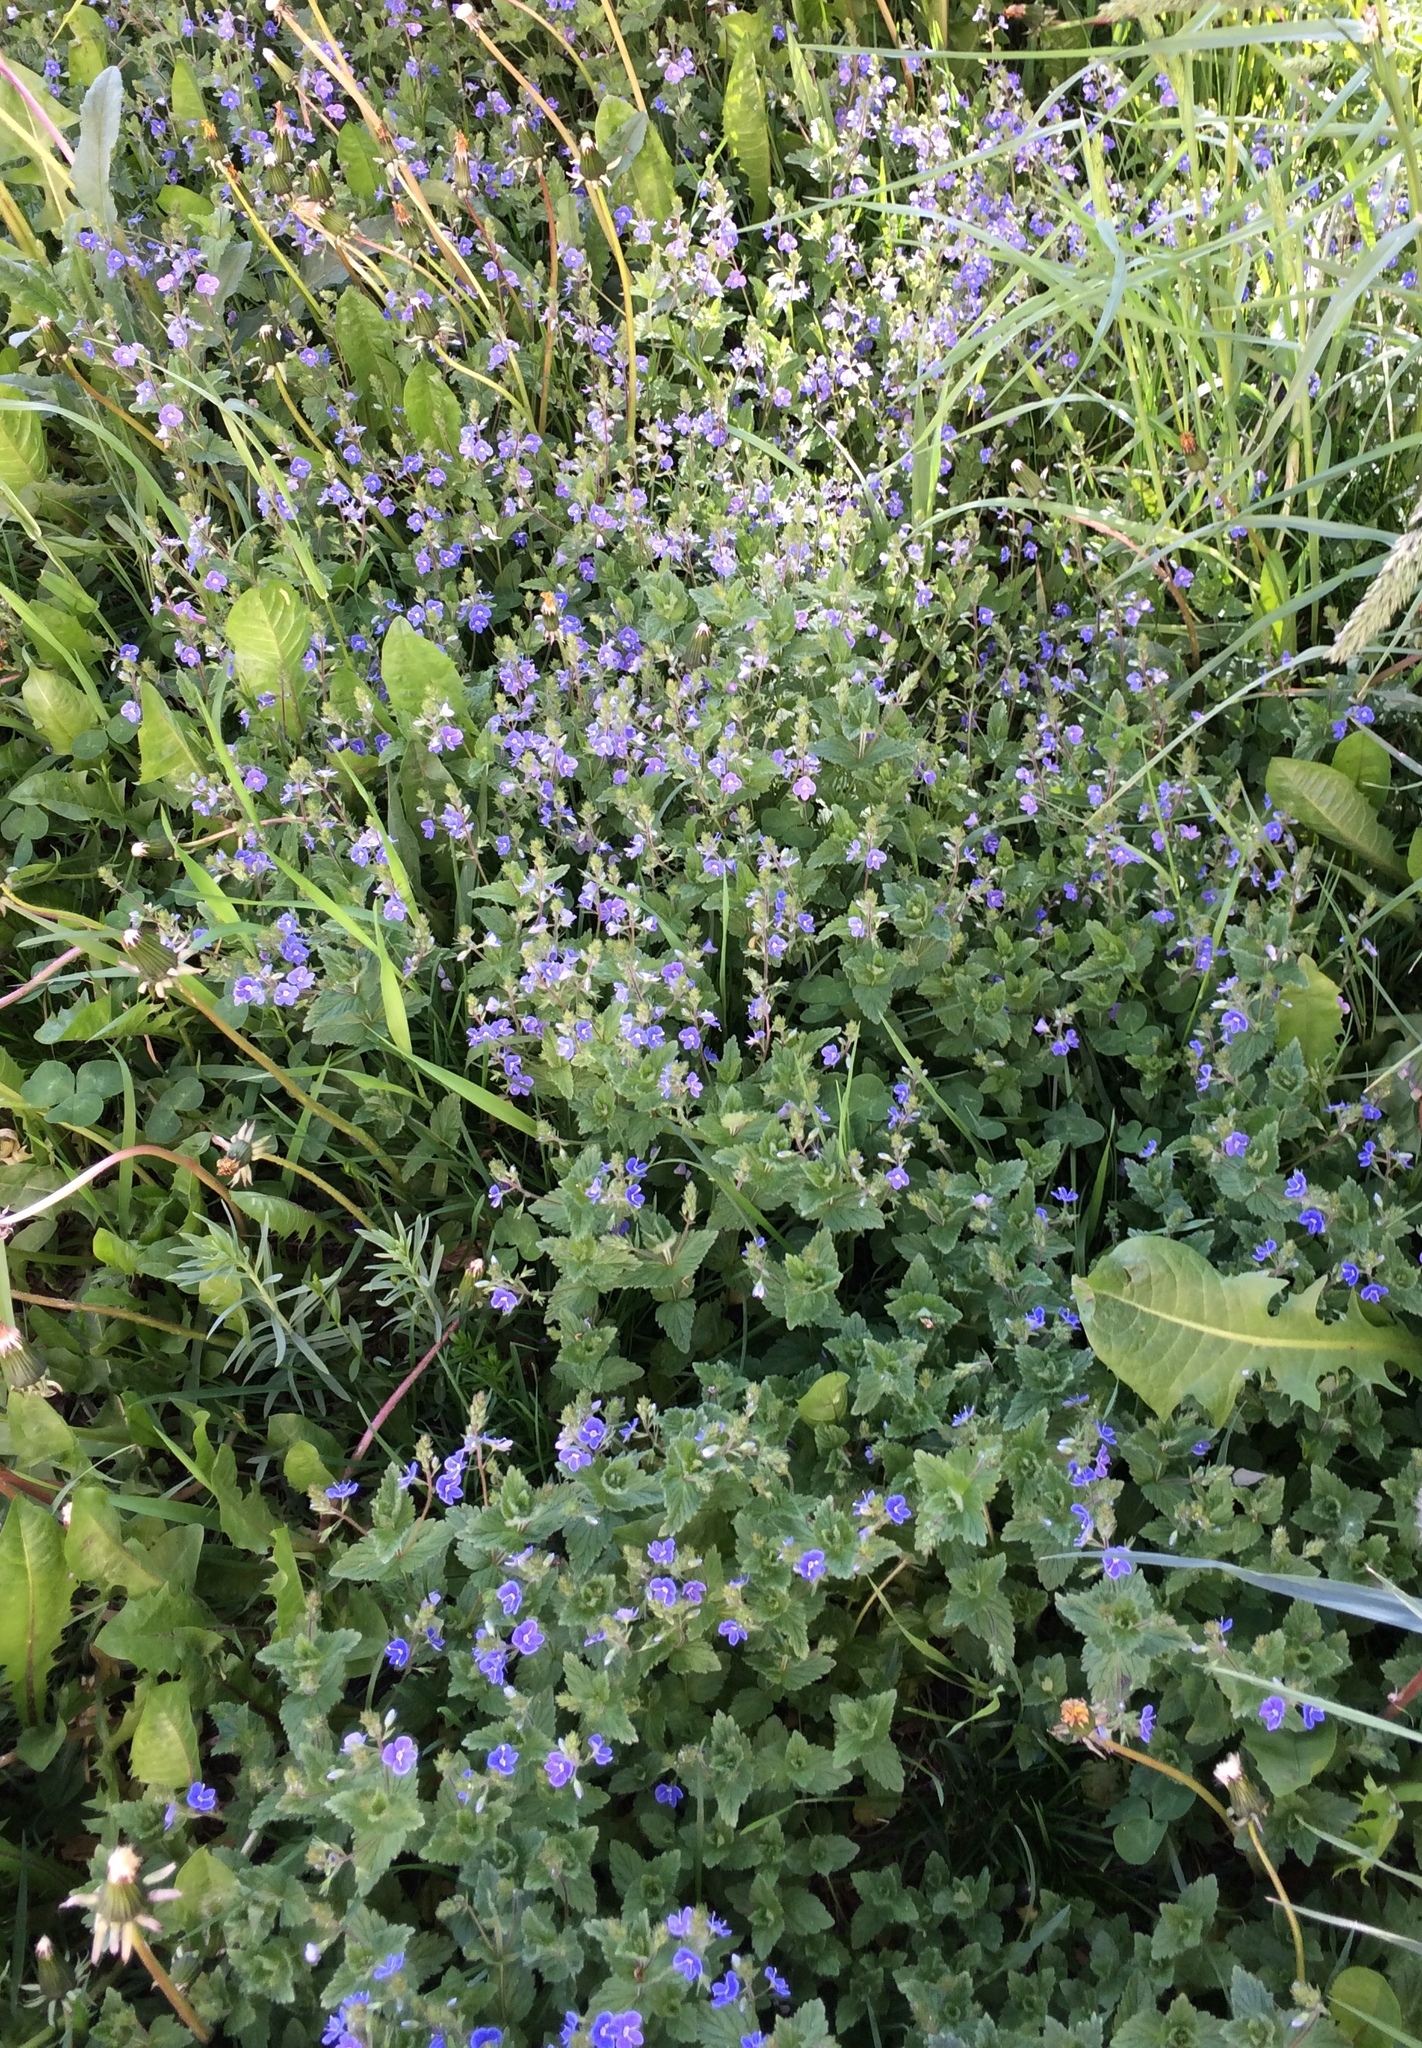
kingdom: Plantae
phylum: Tracheophyta
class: Magnoliopsida
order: Lamiales
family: Plantaginaceae
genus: Veronica
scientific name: Veronica chamaedrys
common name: Germander speedwell
